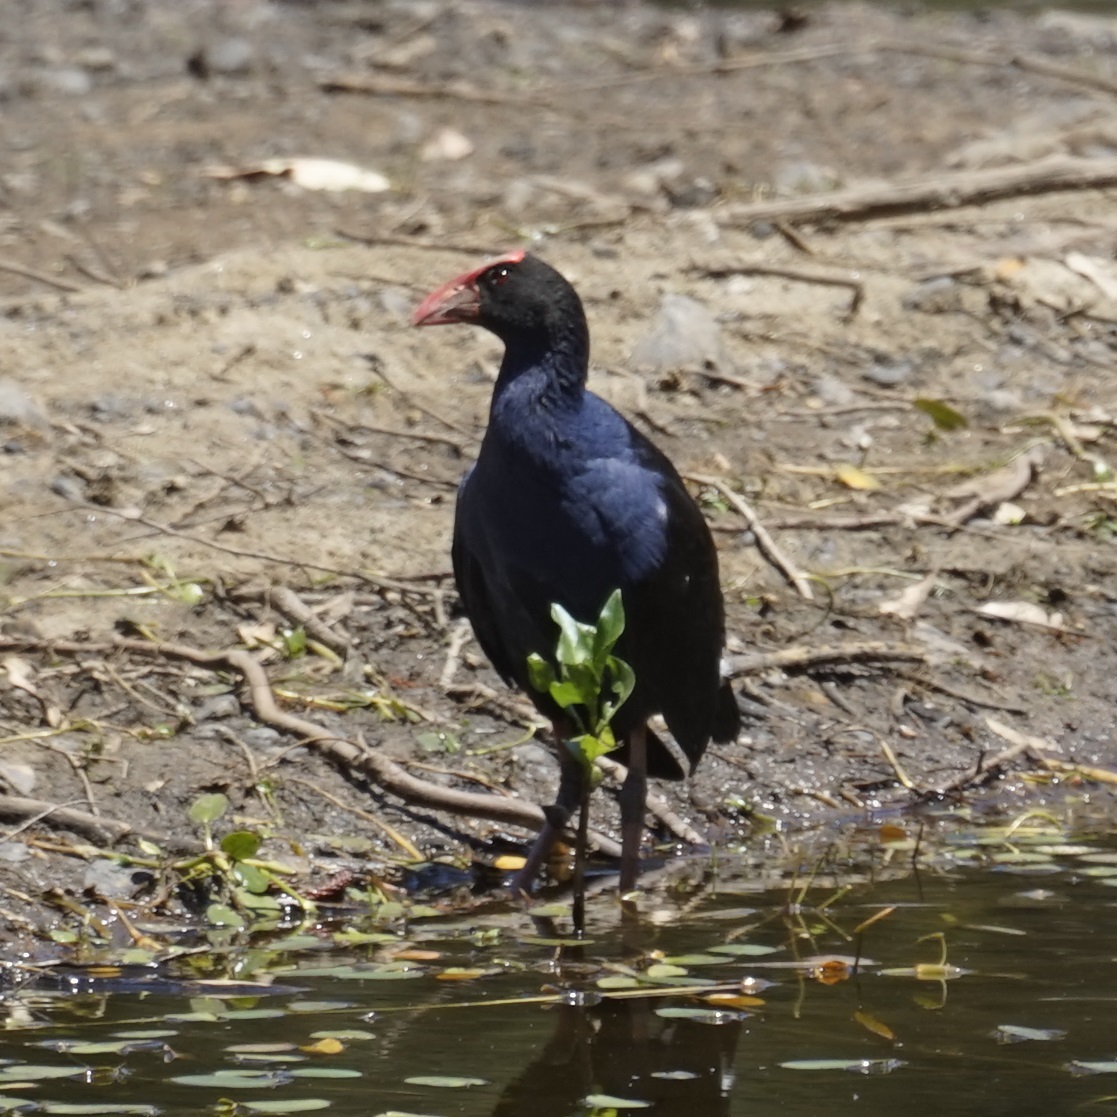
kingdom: Animalia
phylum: Chordata
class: Aves
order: Gruiformes
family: Rallidae
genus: Porphyrio
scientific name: Porphyrio melanotus
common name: Australasian swamphen
